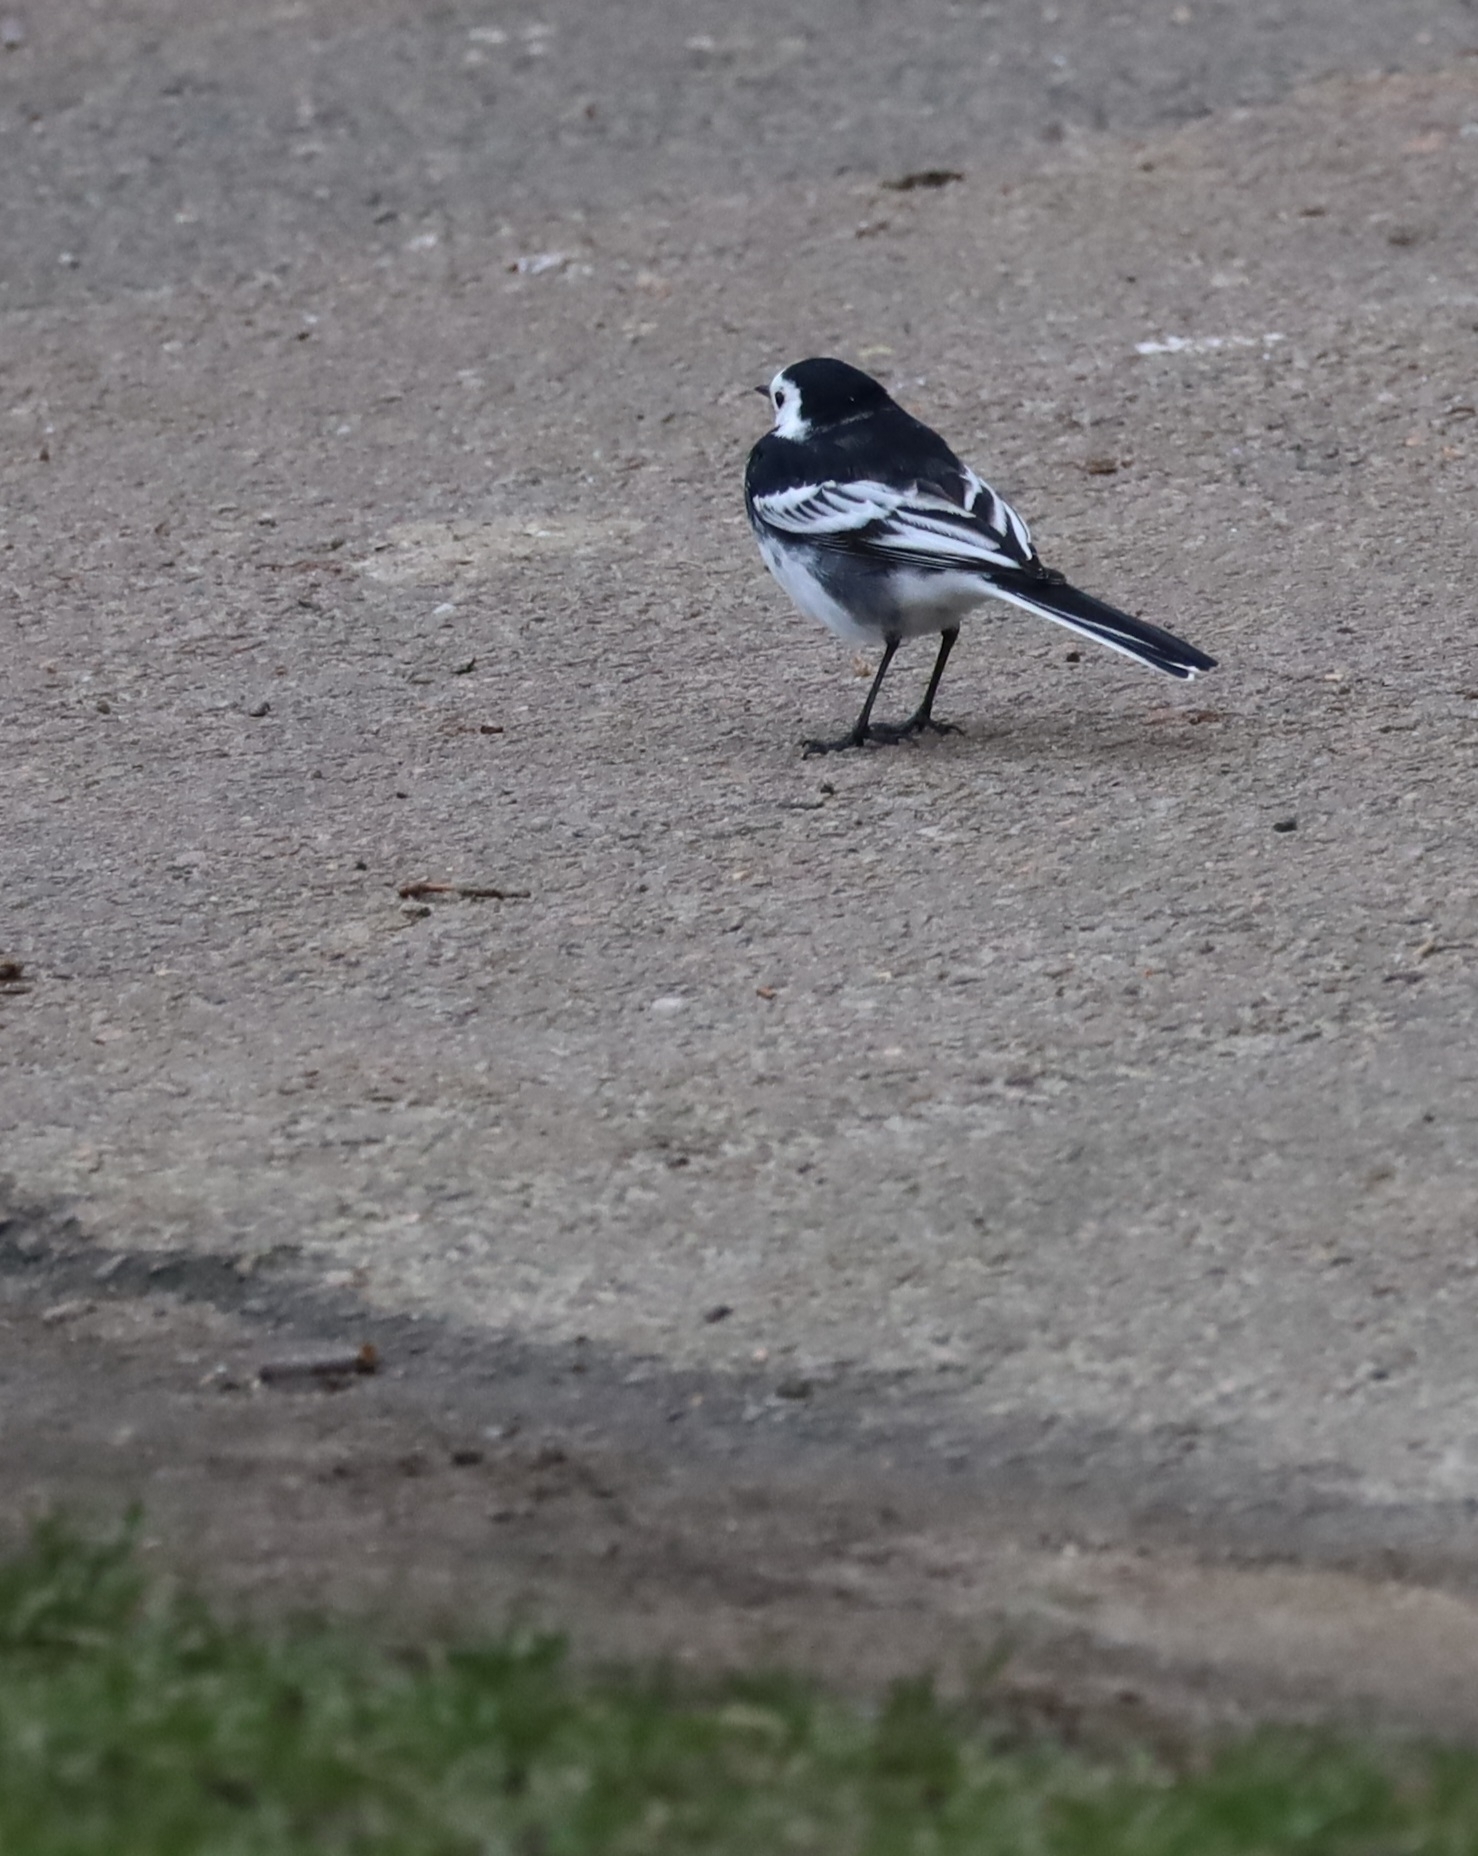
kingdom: Animalia
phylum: Chordata
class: Aves
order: Passeriformes
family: Motacillidae
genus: Motacilla
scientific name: Motacilla alba
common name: White wagtail
